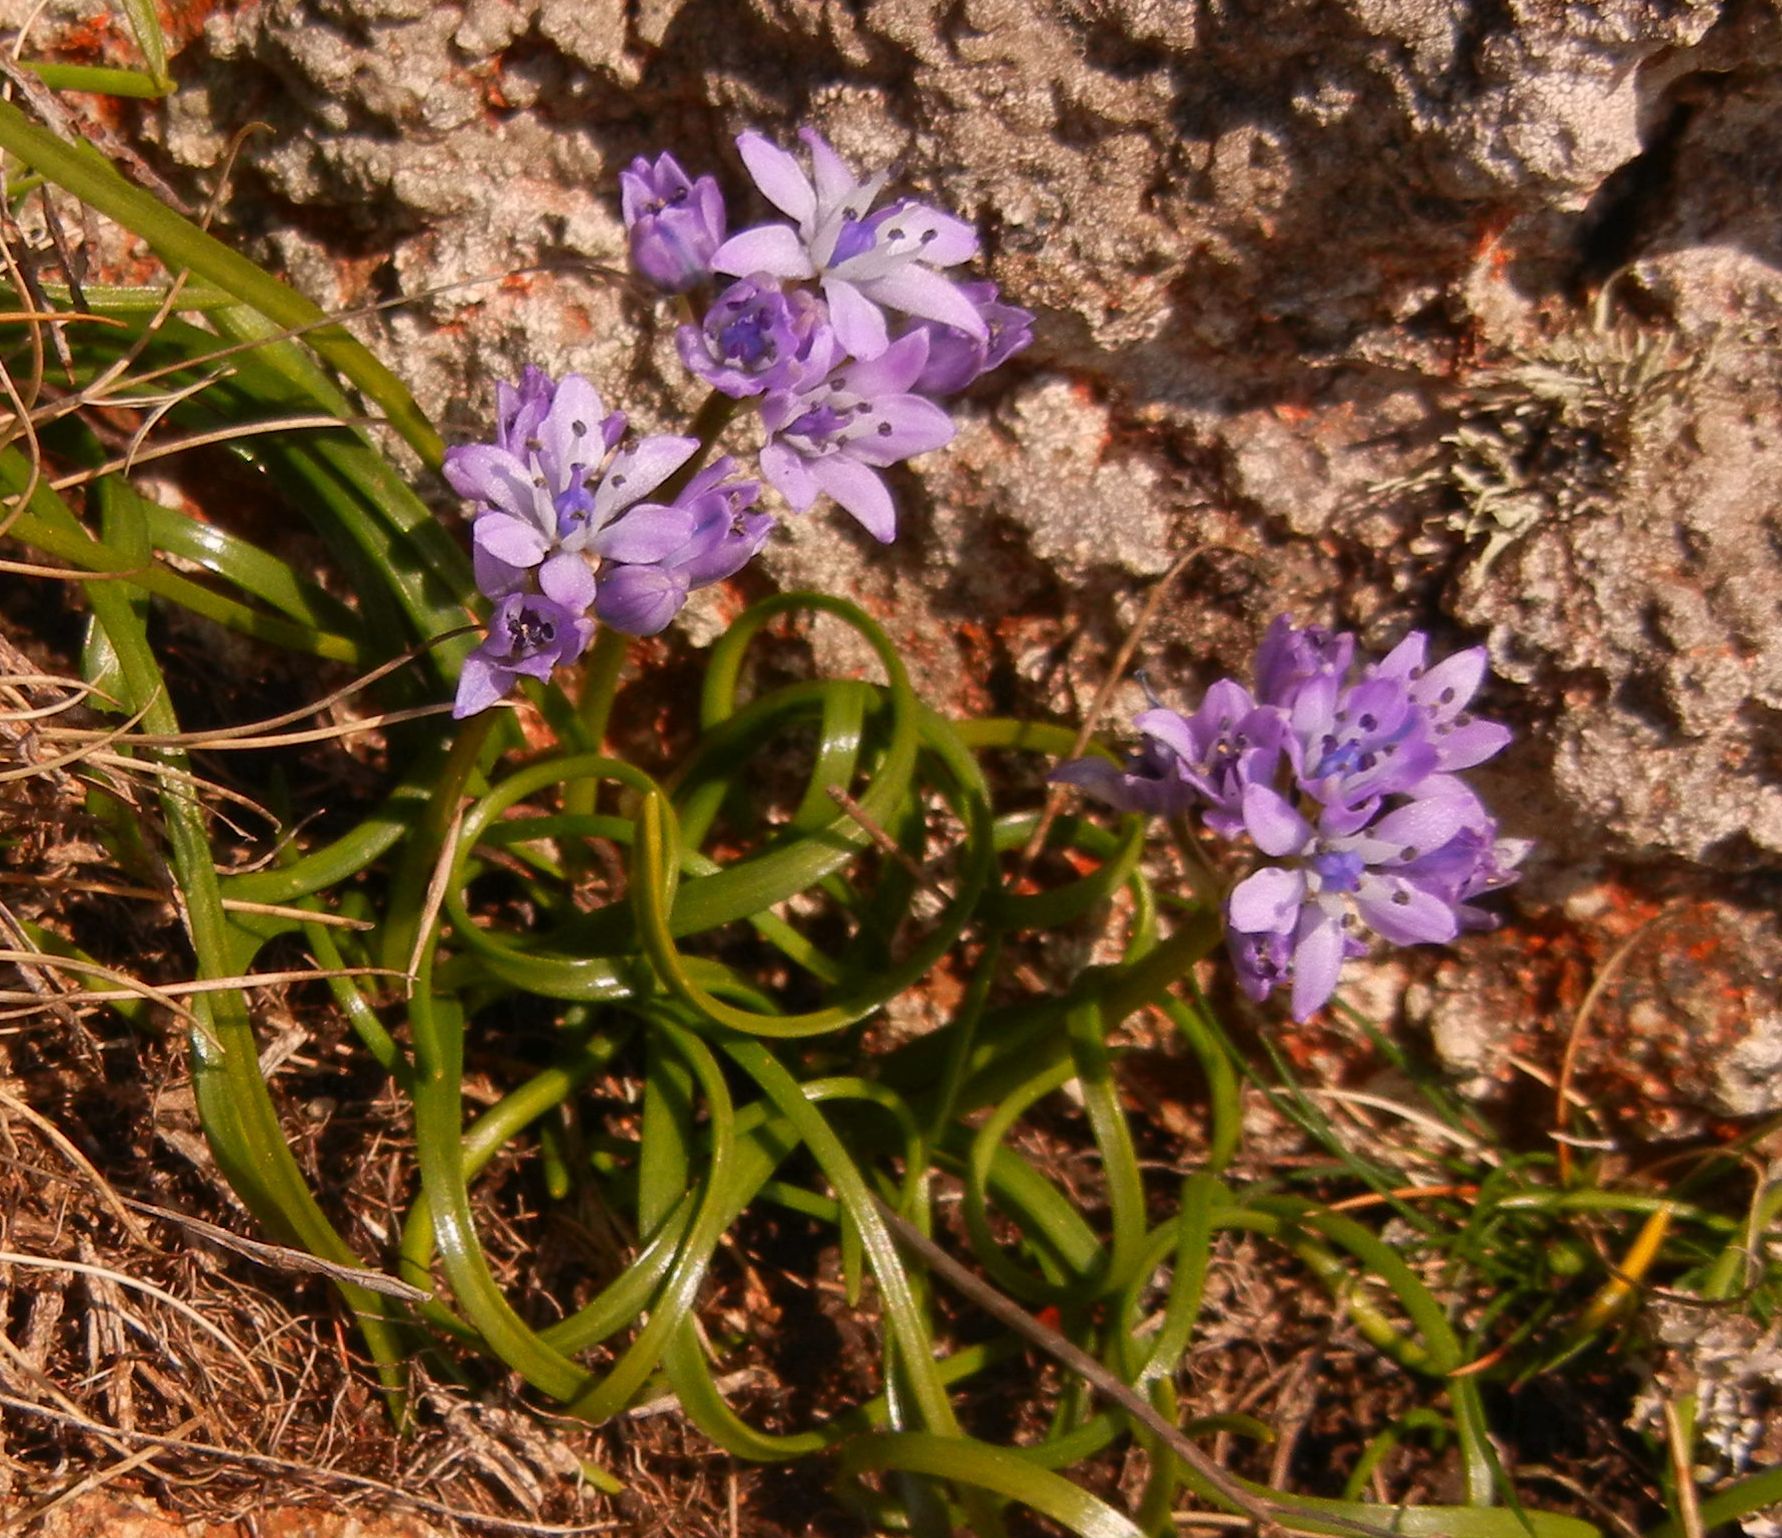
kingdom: Plantae
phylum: Tracheophyta
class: Liliopsida
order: Asparagales
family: Asparagaceae
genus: Scilla
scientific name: Scilla verna
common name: Spring squill
